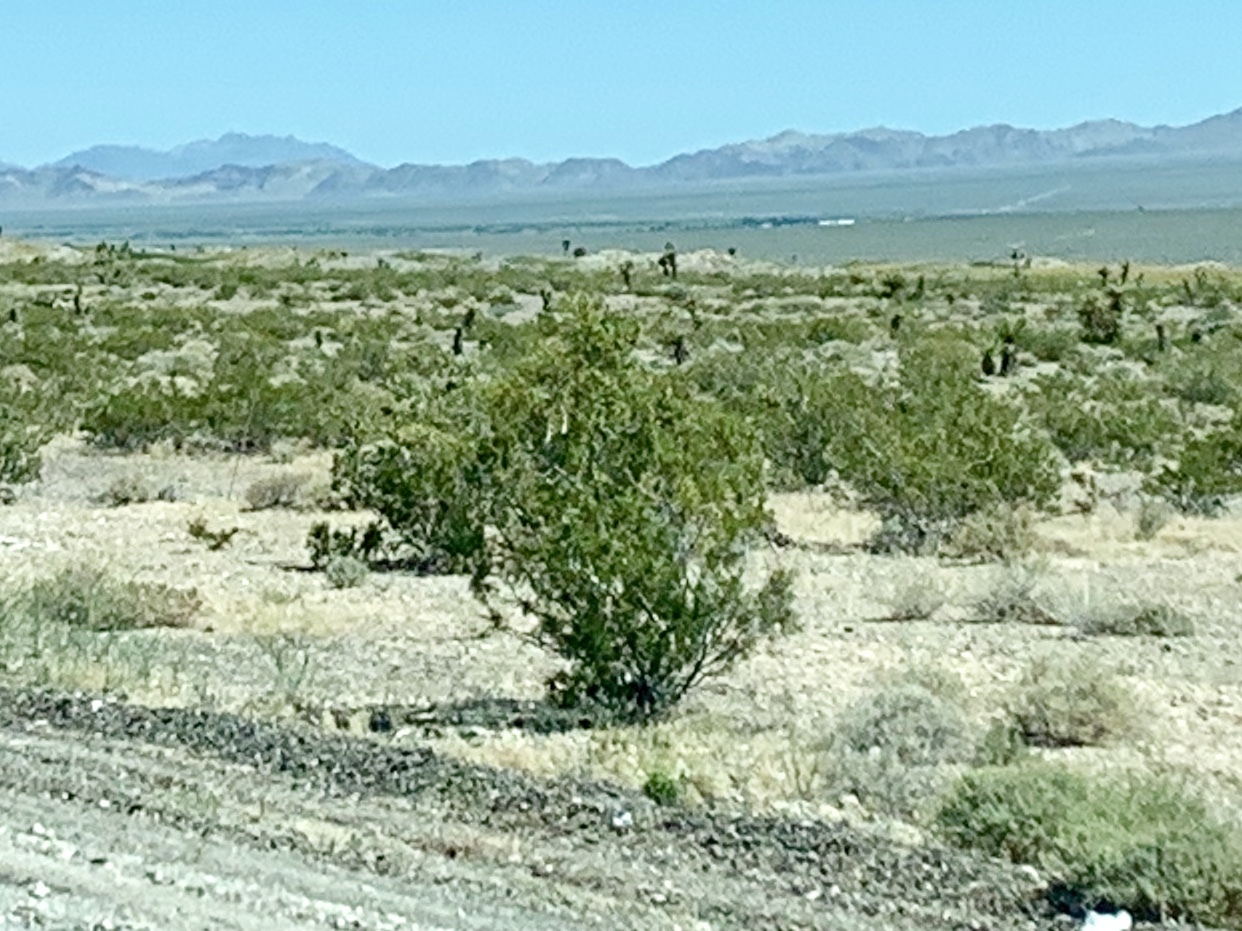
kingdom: Plantae
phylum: Tracheophyta
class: Magnoliopsida
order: Zygophyllales
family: Zygophyllaceae
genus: Larrea
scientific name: Larrea tridentata
